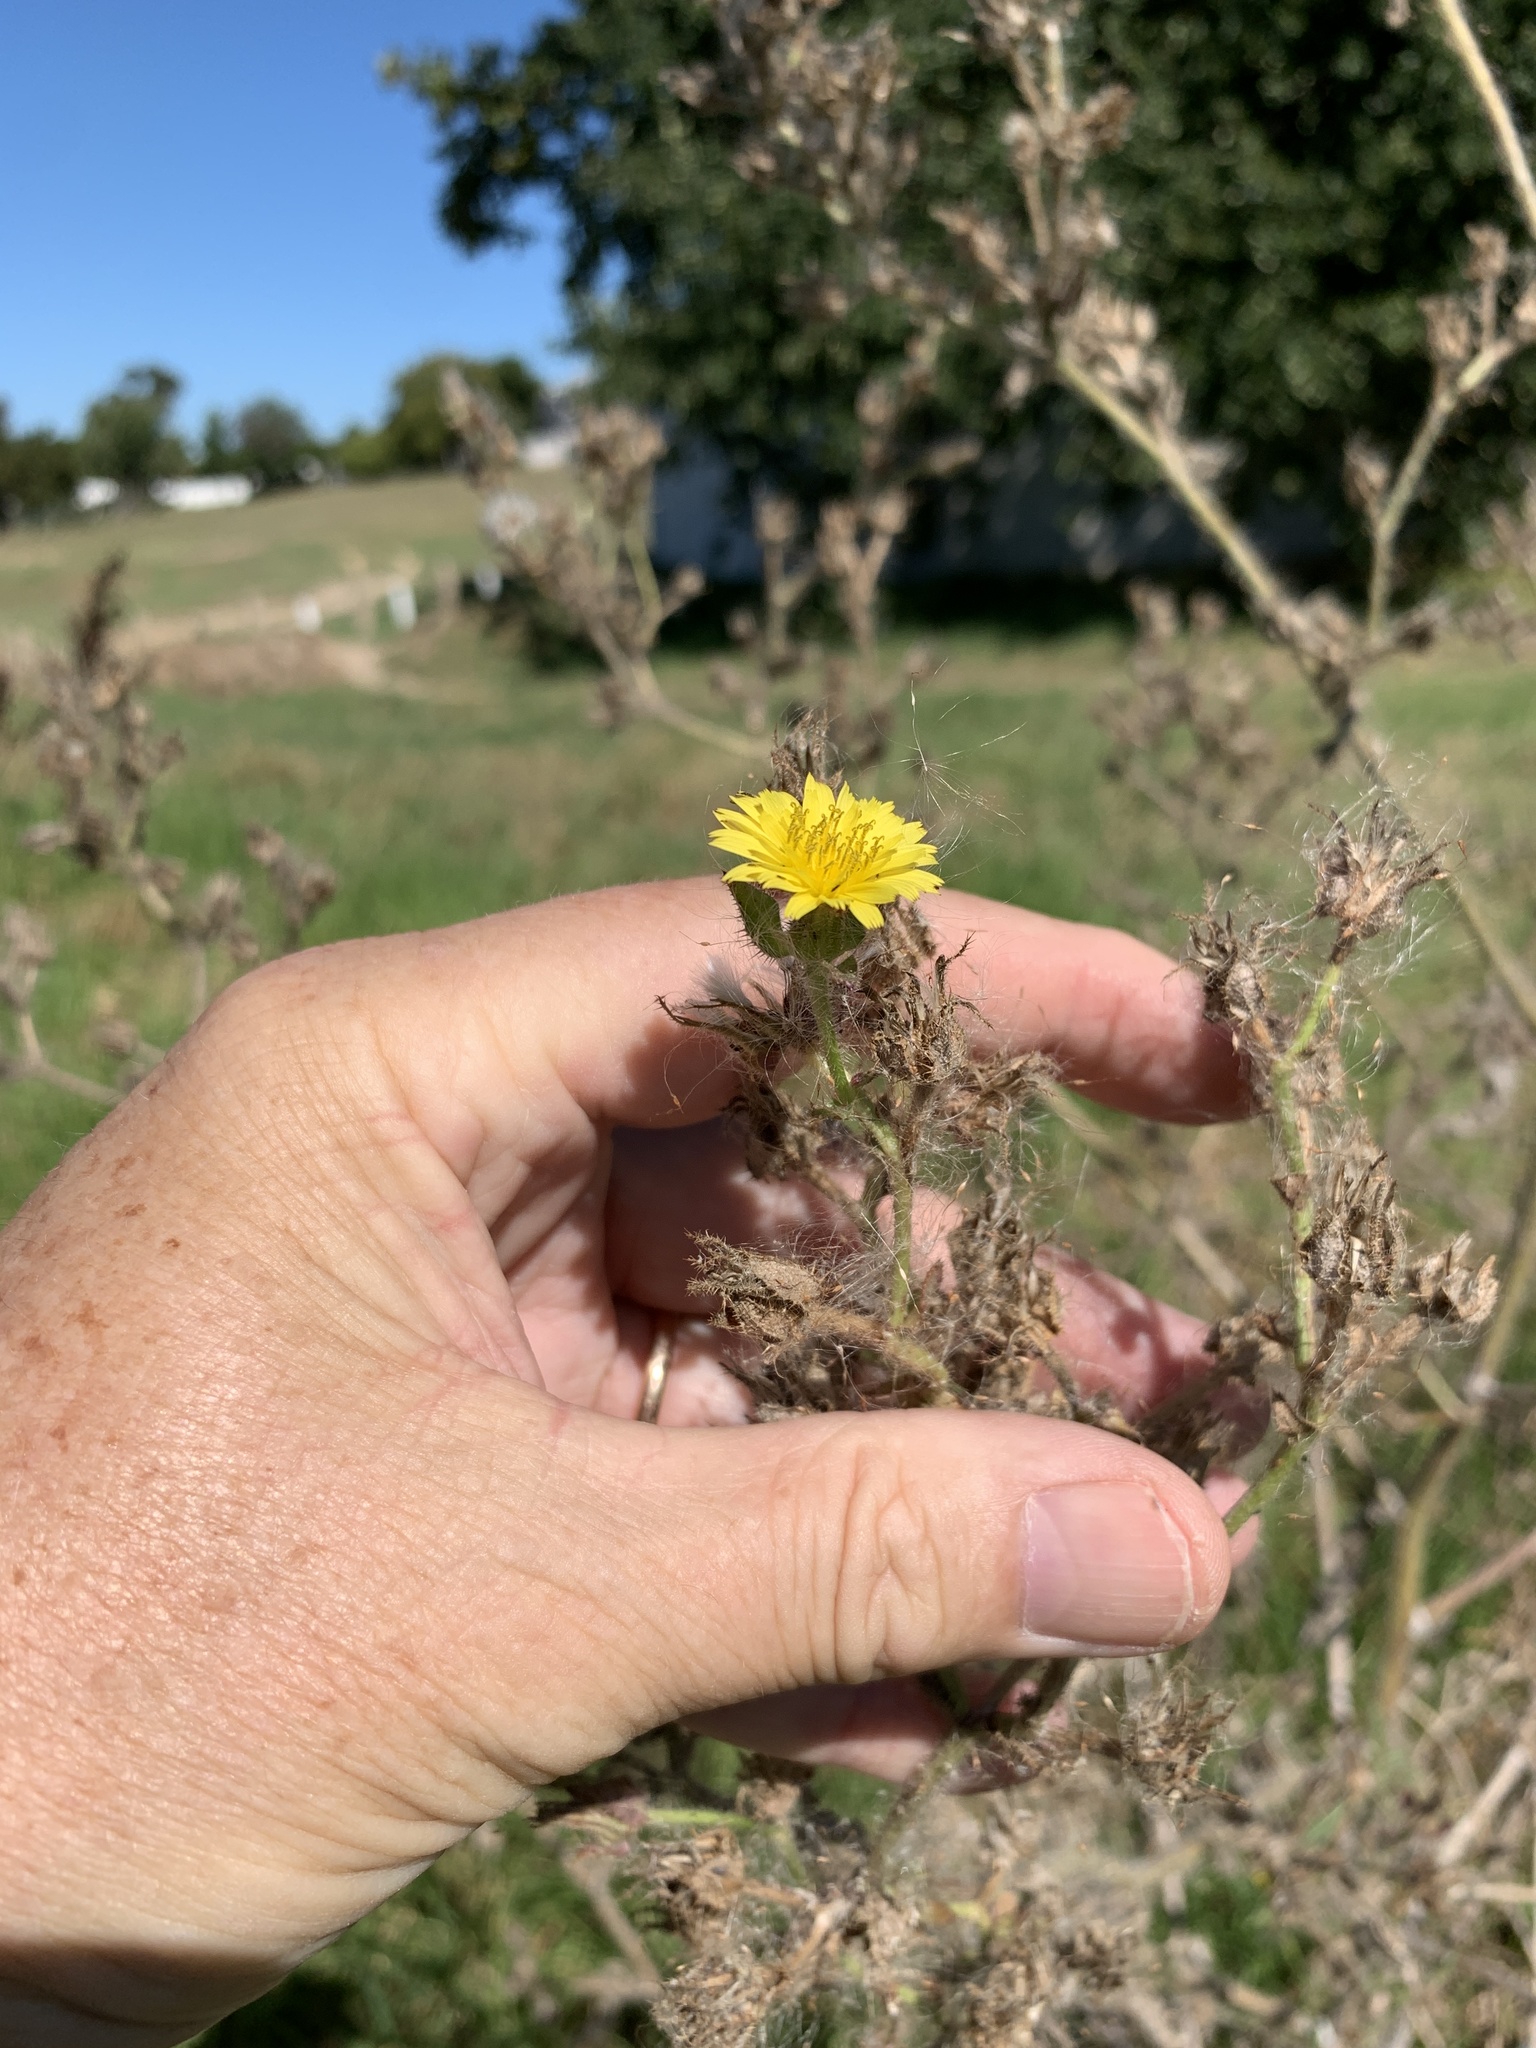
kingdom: Plantae
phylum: Tracheophyta
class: Magnoliopsida
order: Asterales
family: Asteraceae
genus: Helminthotheca
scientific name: Helminthotheca echioides
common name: Ox-tongue
